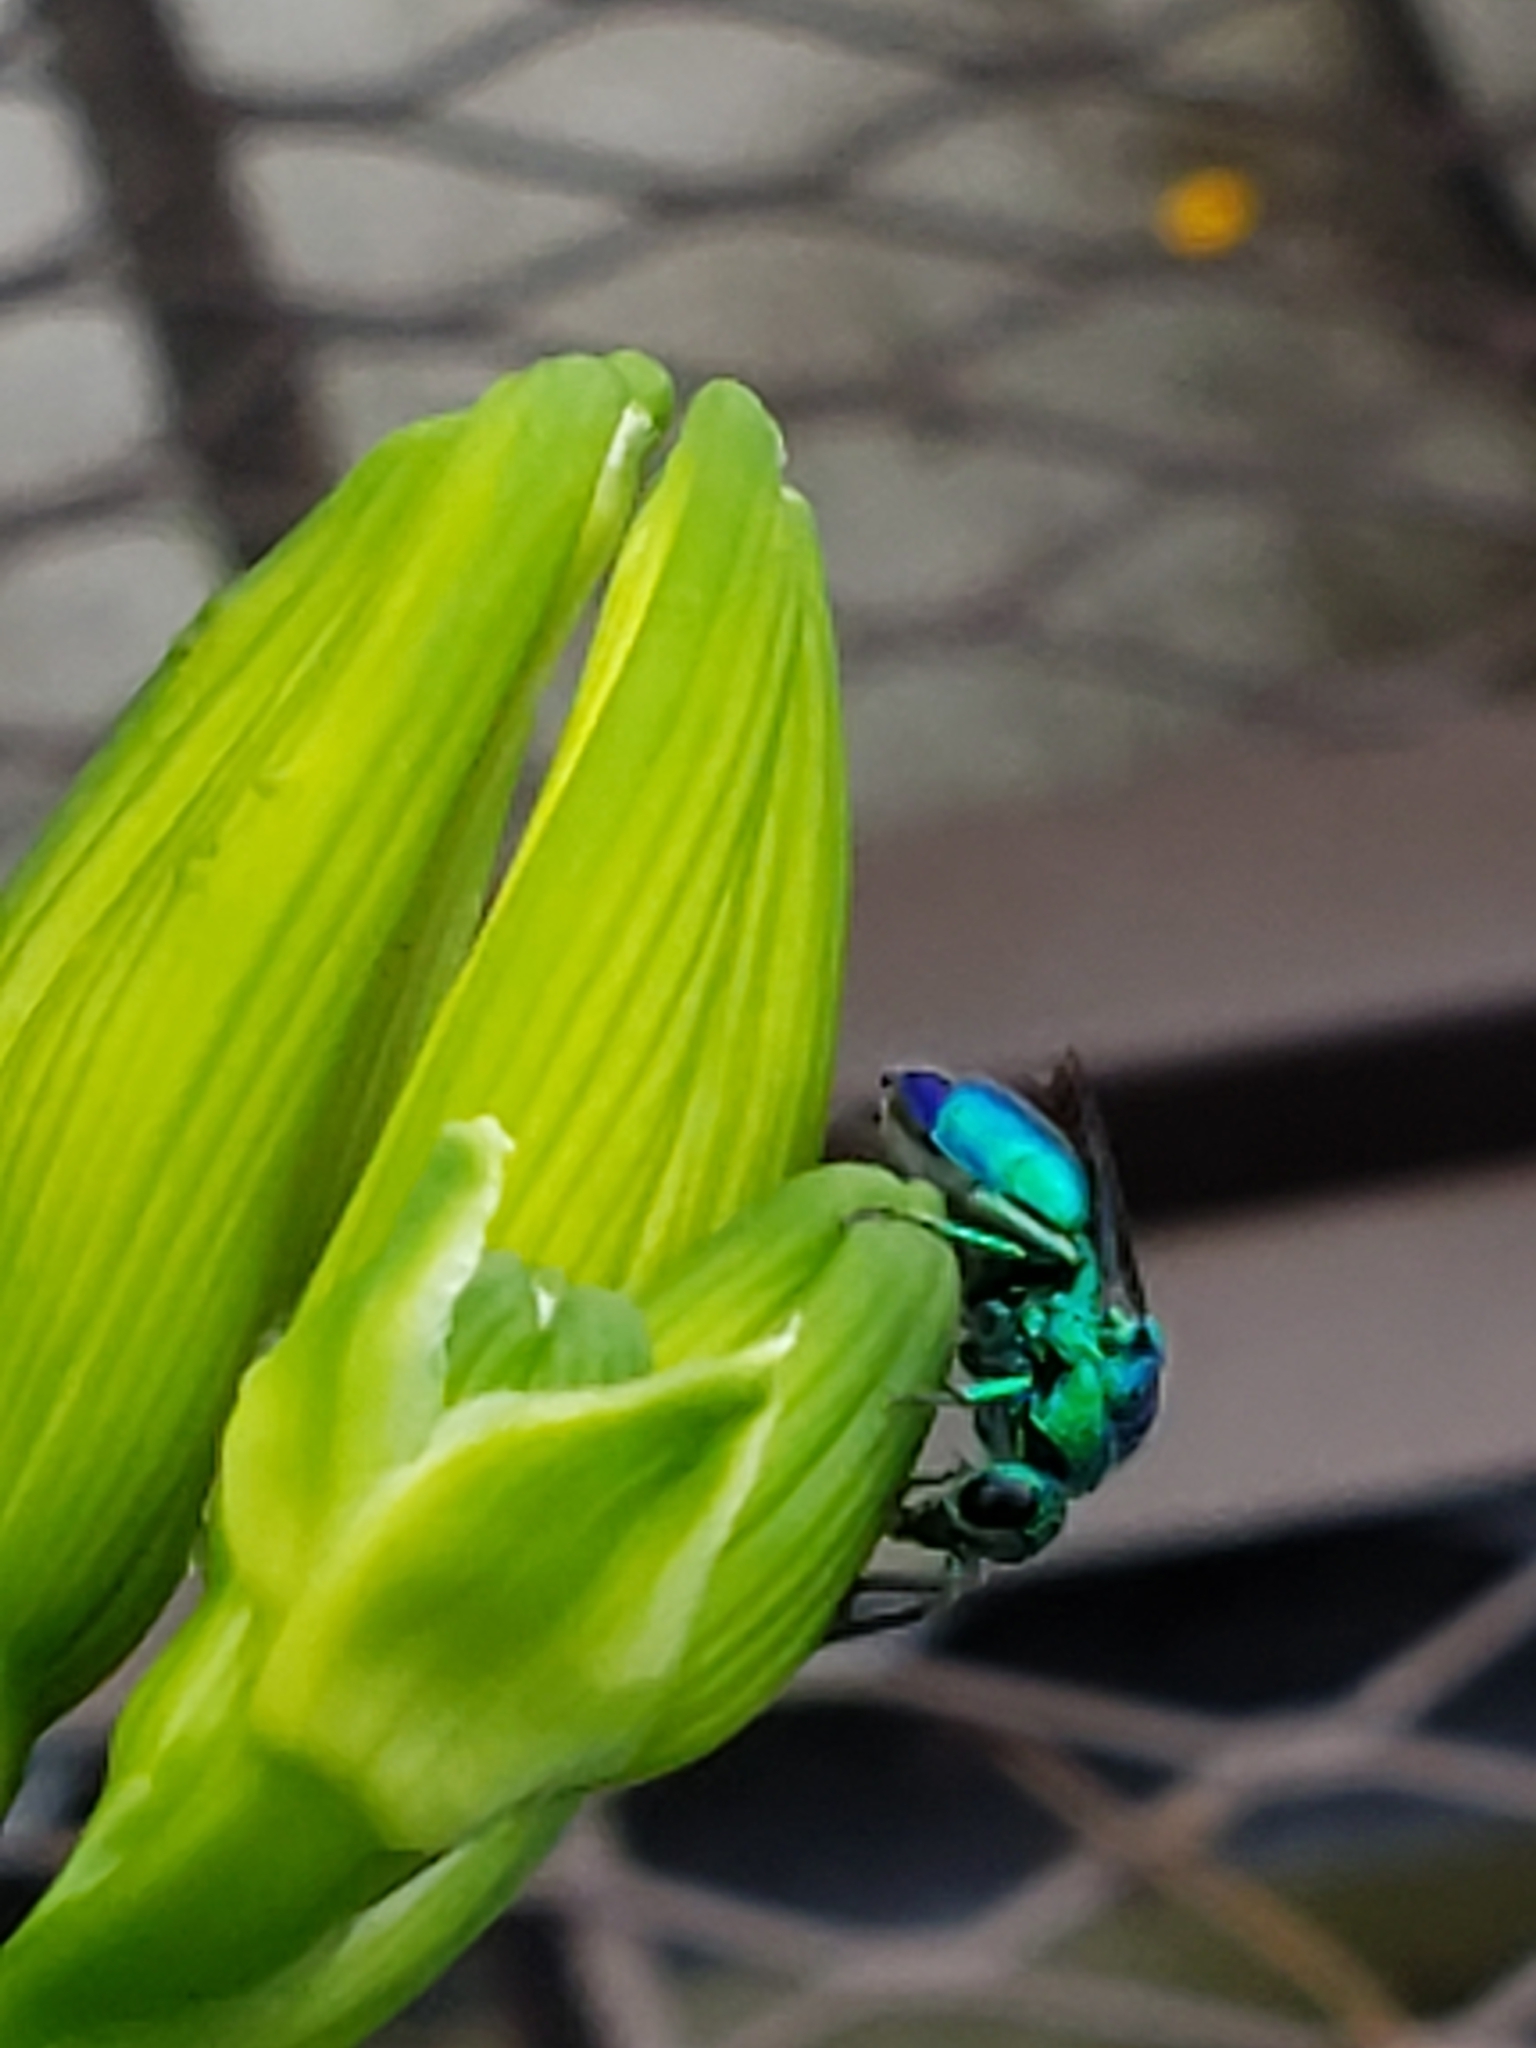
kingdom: Animalia
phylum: Arthropoda
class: Insecta
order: Hymenoptera
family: Chrysididae
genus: Chrysis
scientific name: Chrysis angolensis
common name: Cuckoo wasp
